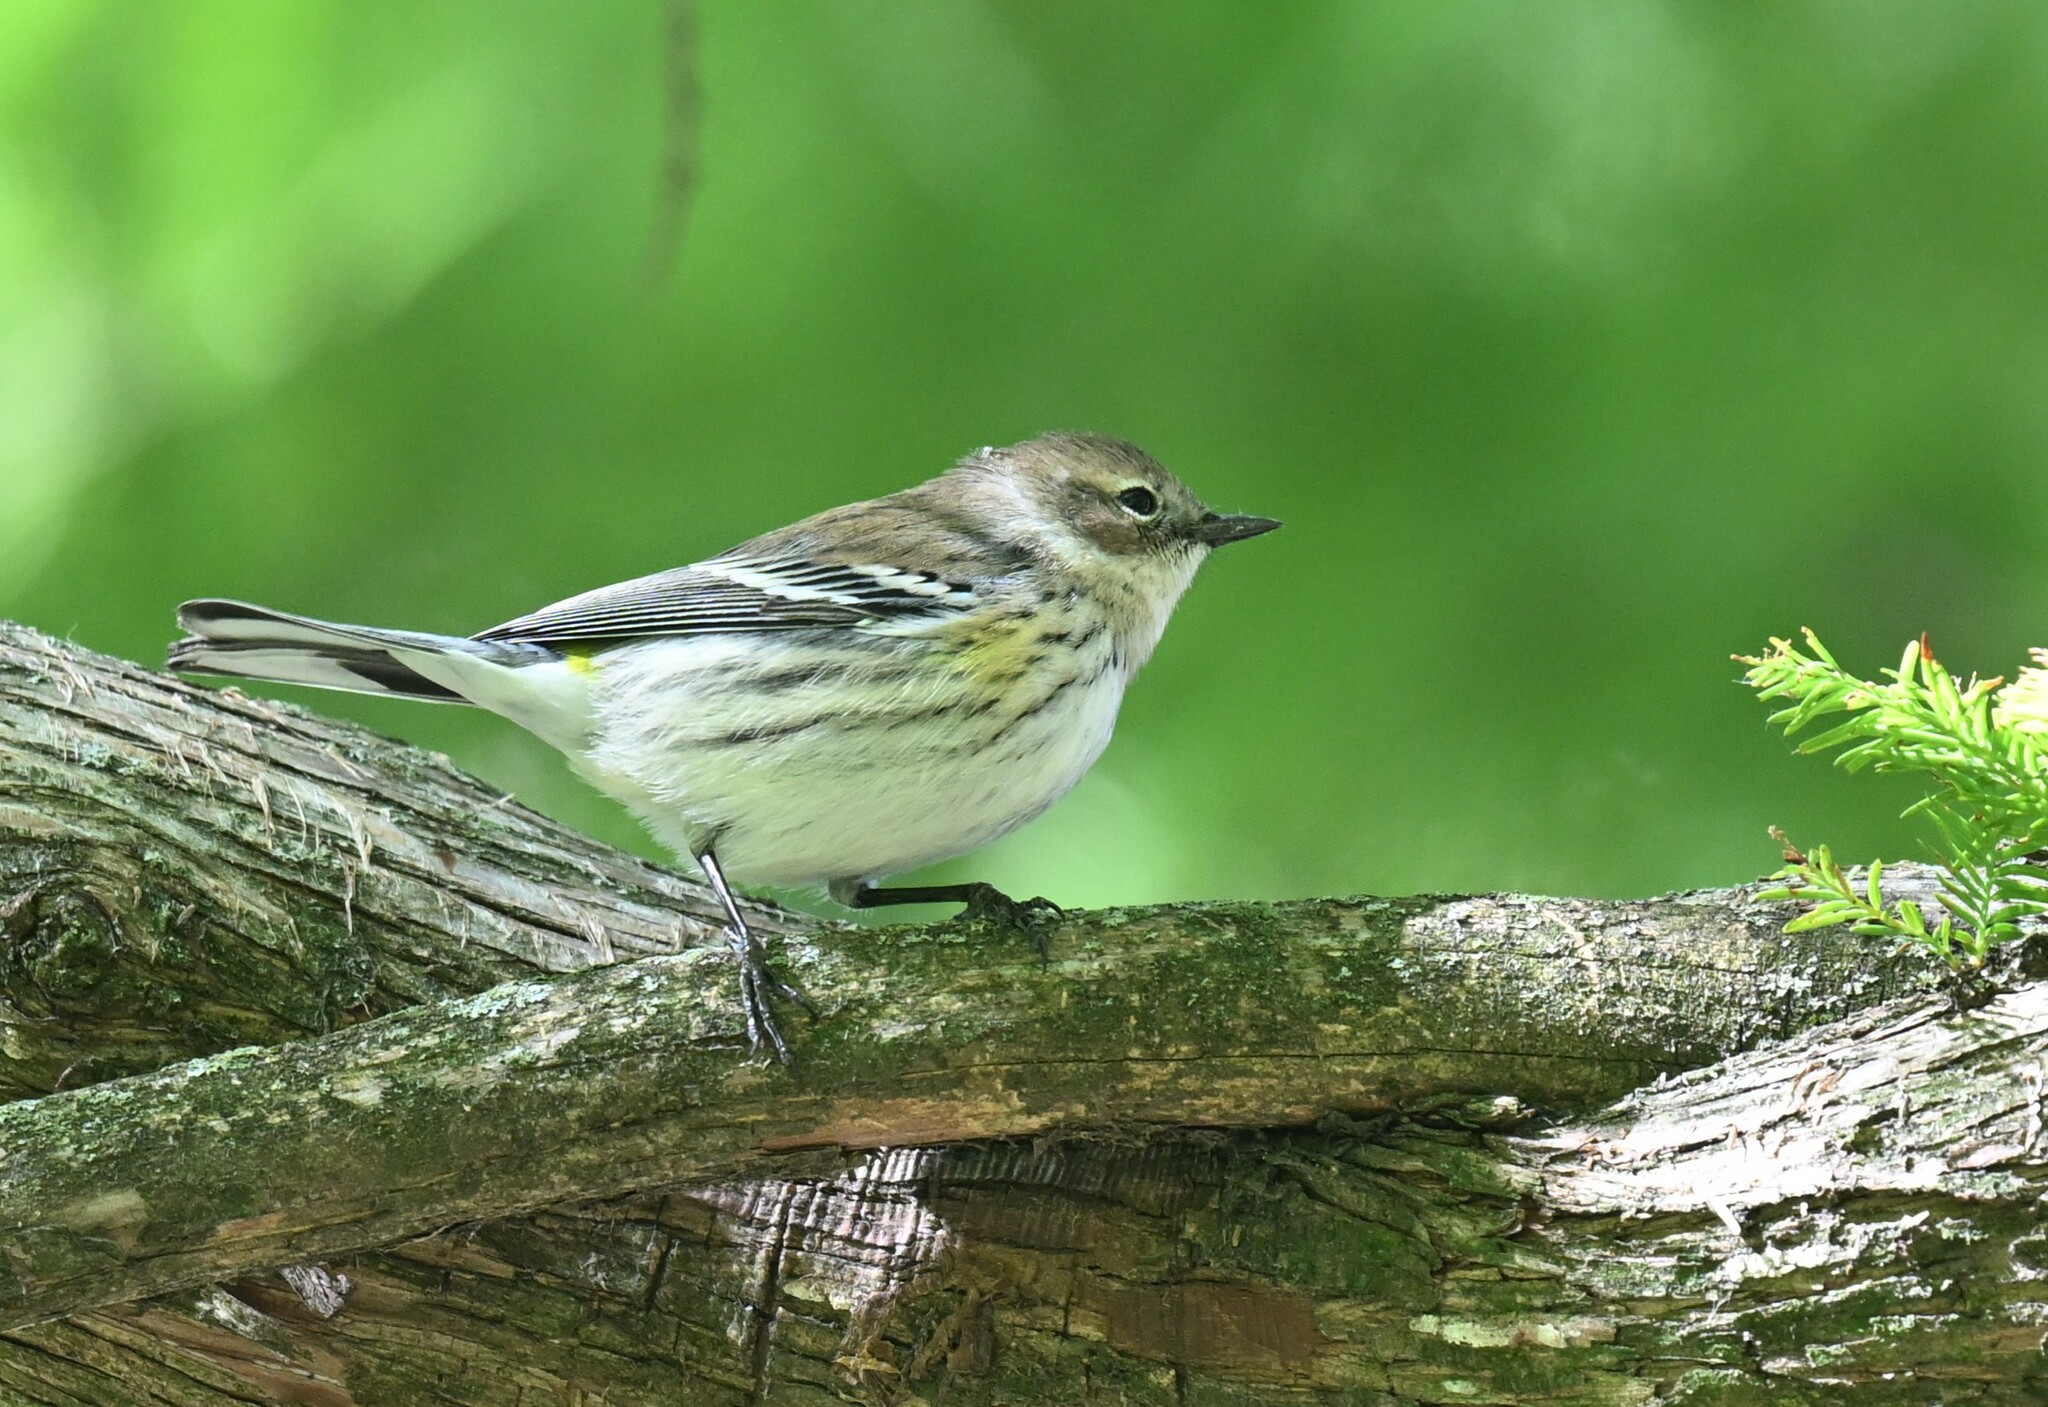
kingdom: Animalia
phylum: Chordata
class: Aves
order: Passeriformes
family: Parulidae
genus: Setophaga
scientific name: Setophaga coronata
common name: Myrtle warbler
